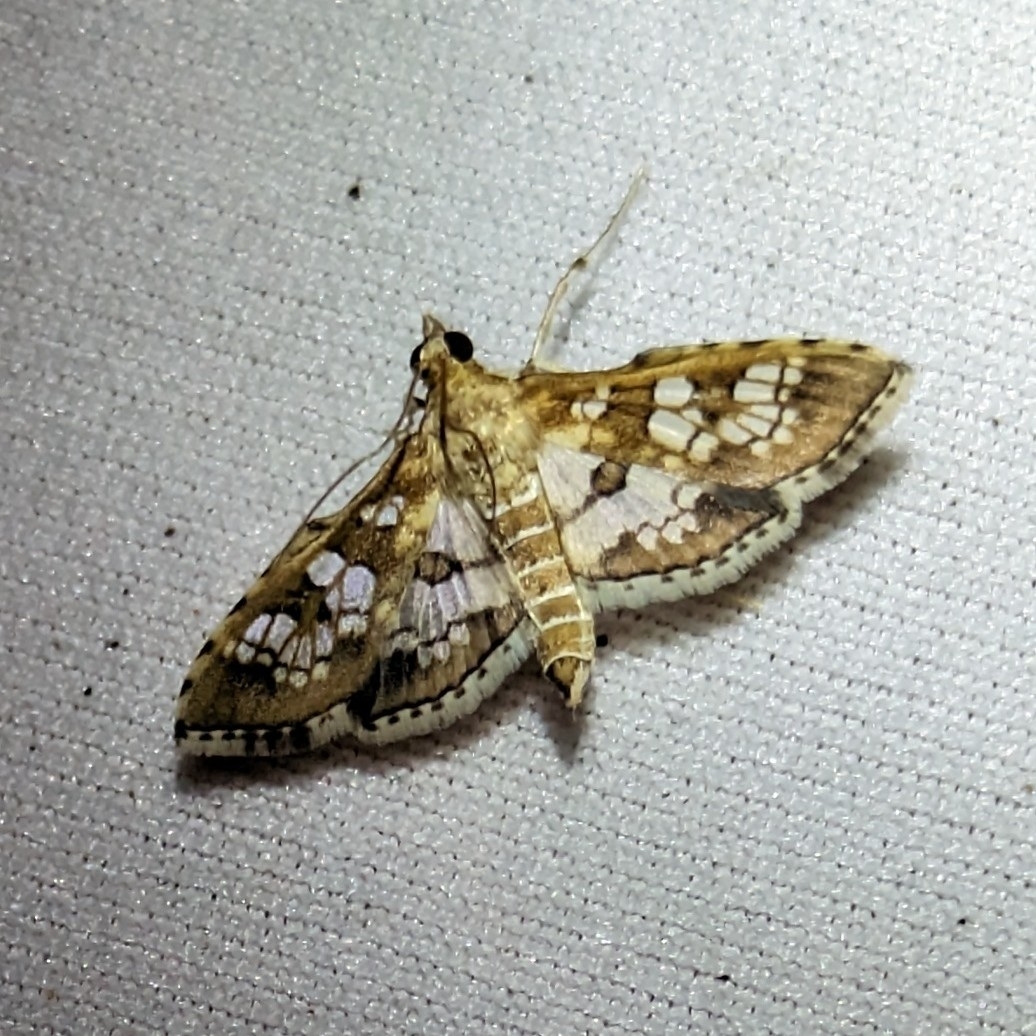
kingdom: Animalia
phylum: Arthropoda
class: Insecta
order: Lepidoptera
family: Crambidae
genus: Sameodes
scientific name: Sameodes cancellalis
